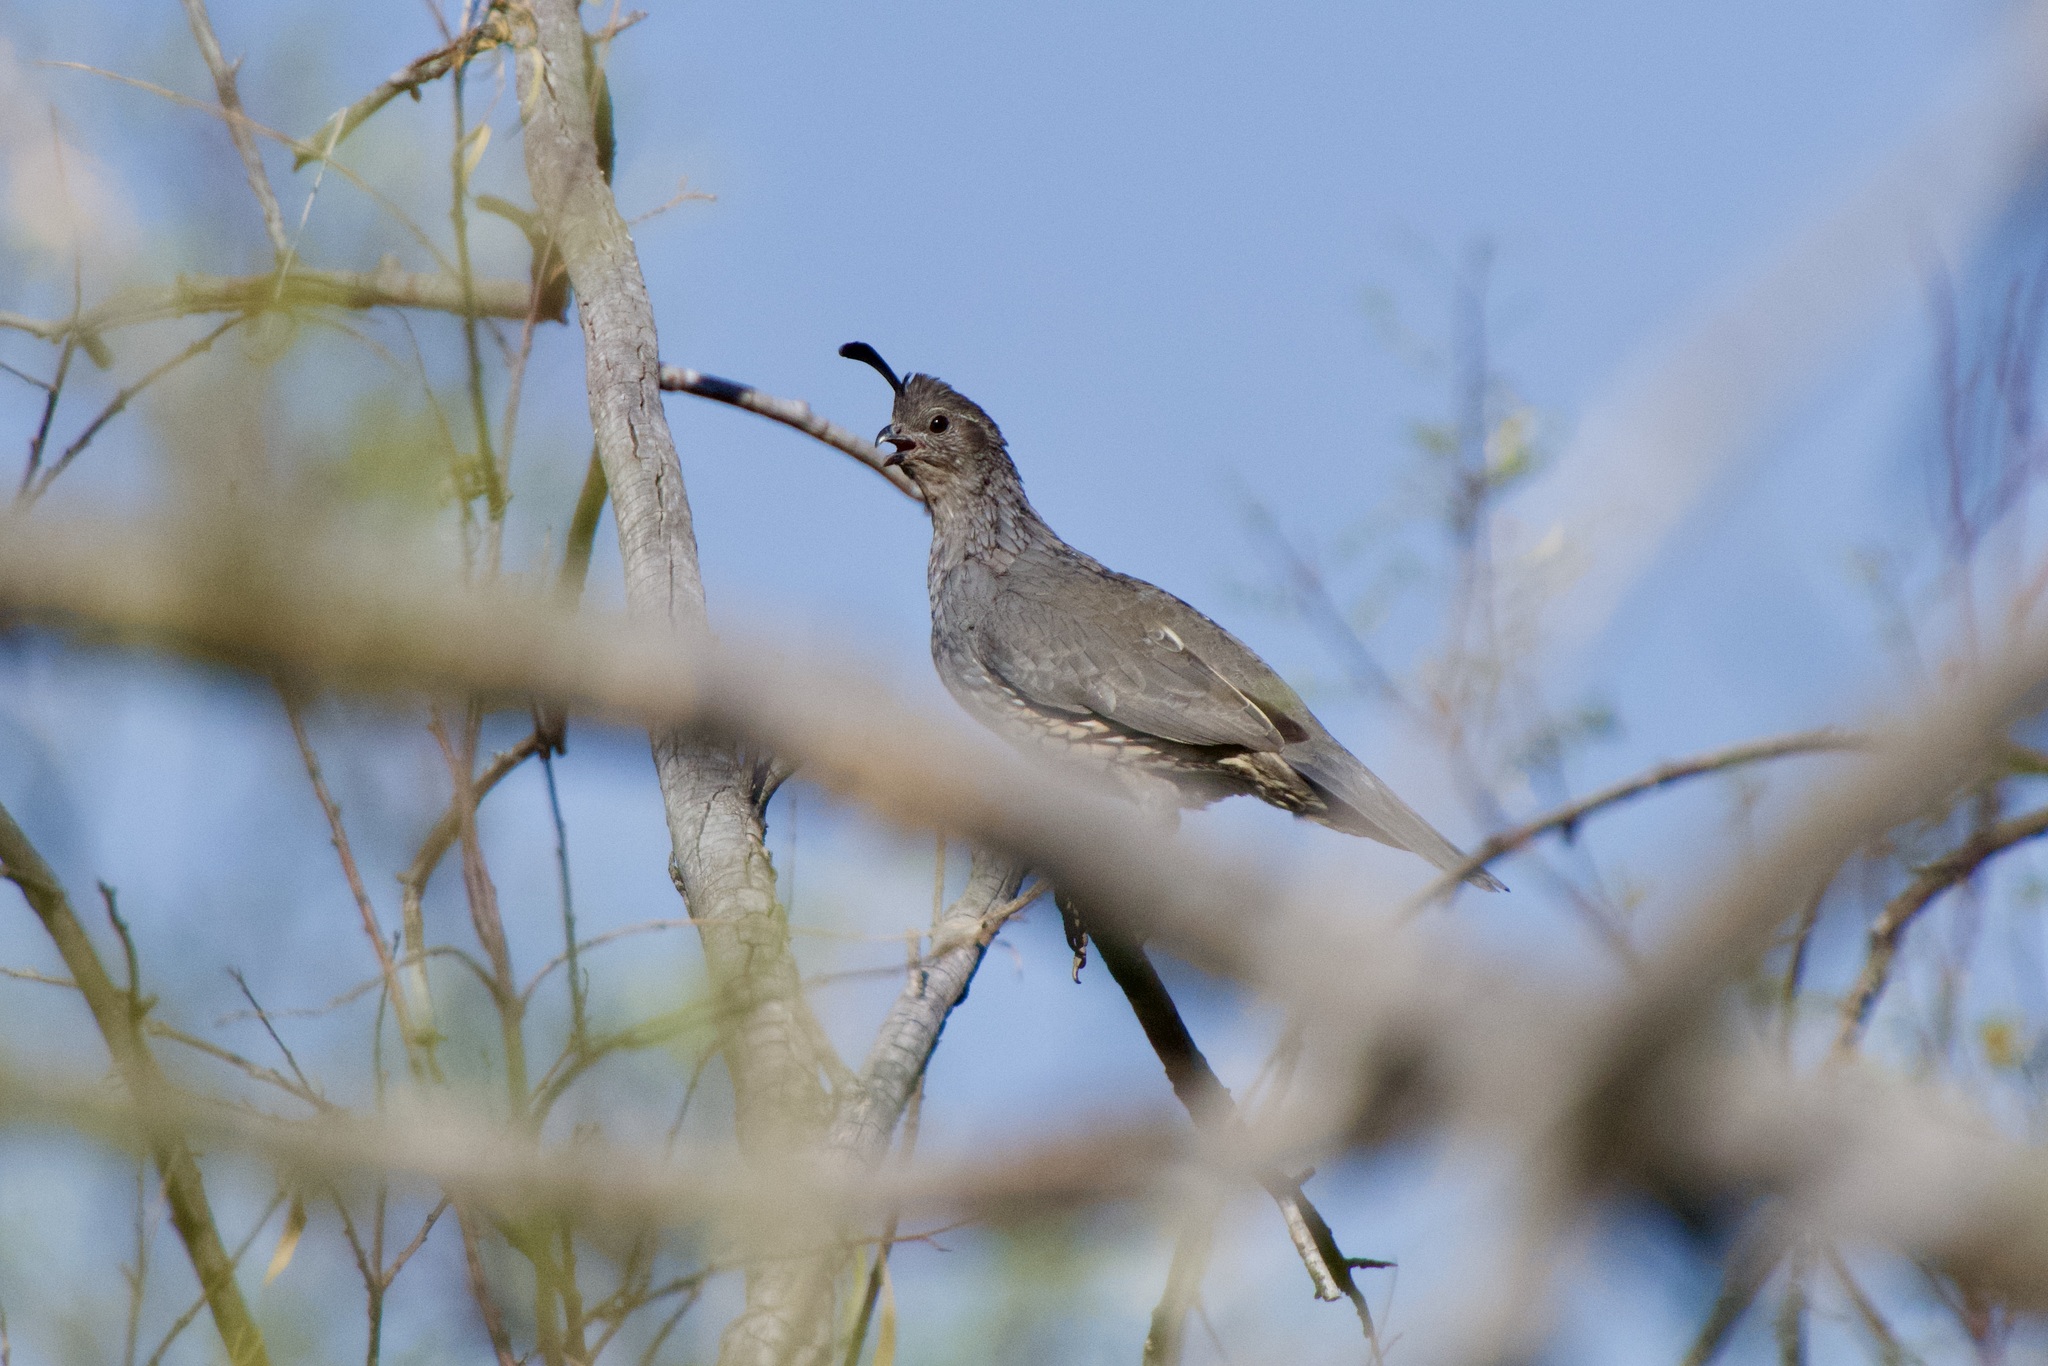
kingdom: Animalia
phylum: Chordata
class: Aves
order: Galliformes
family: Odontophoridae
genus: Callipepla
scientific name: Callipepla gambelii
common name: Gambel's quail
